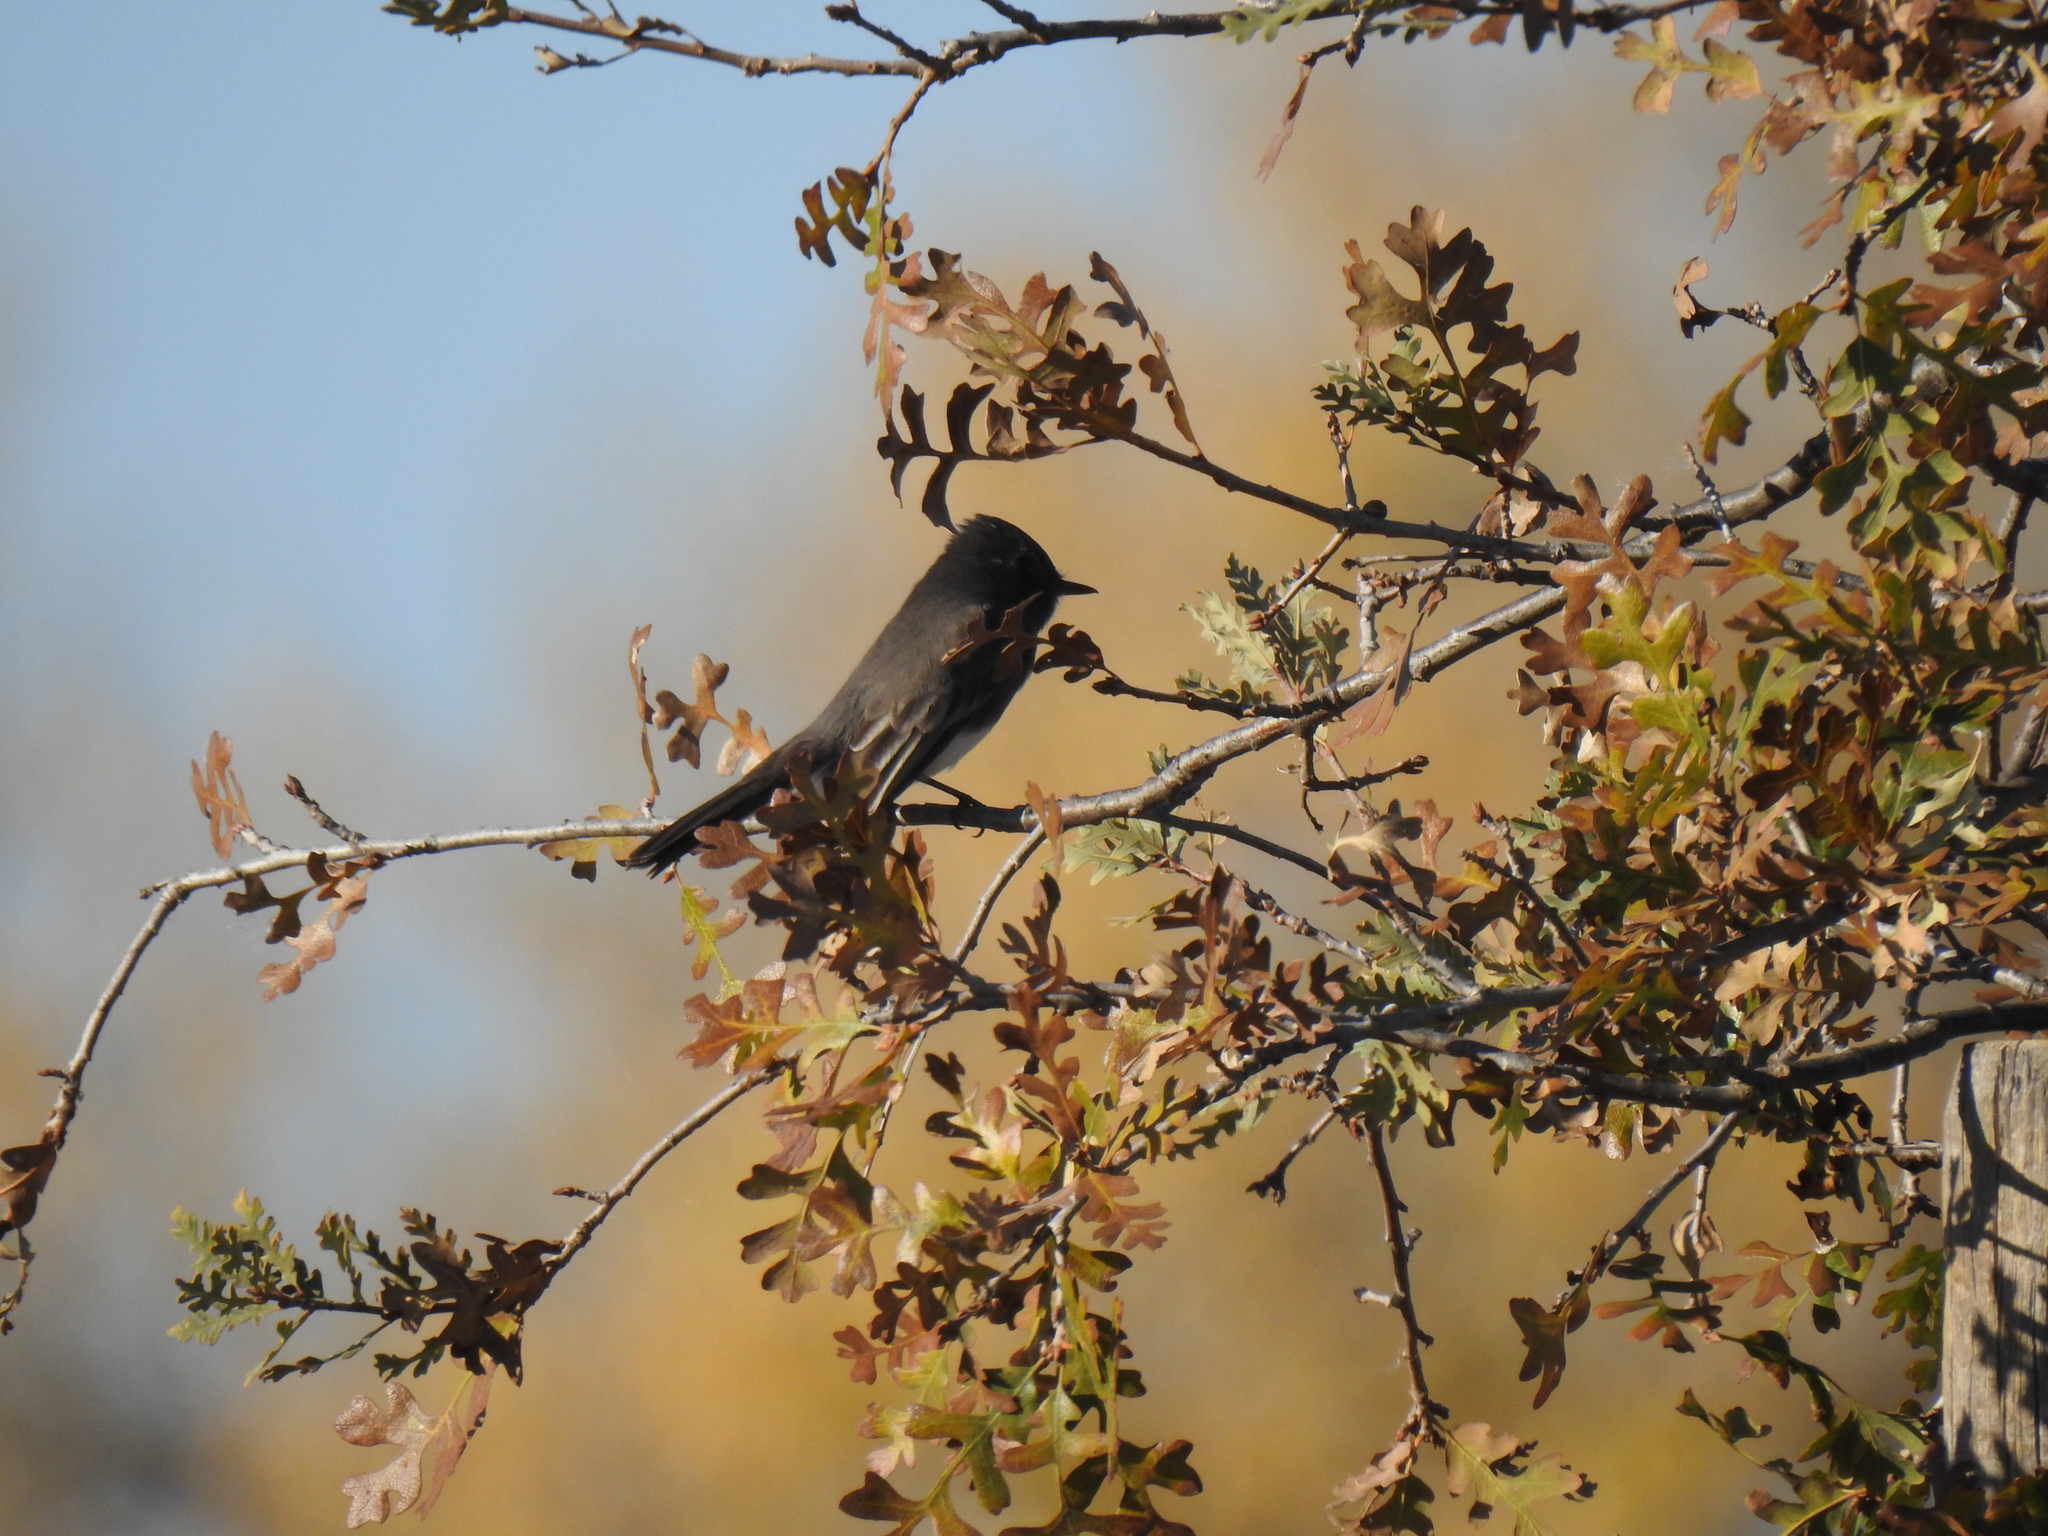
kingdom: Animalia
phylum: Chordata
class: Aves
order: Passeriformes
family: Tyrannidae
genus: Sayornis
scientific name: Sayornis nigricans
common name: Black phoebe
